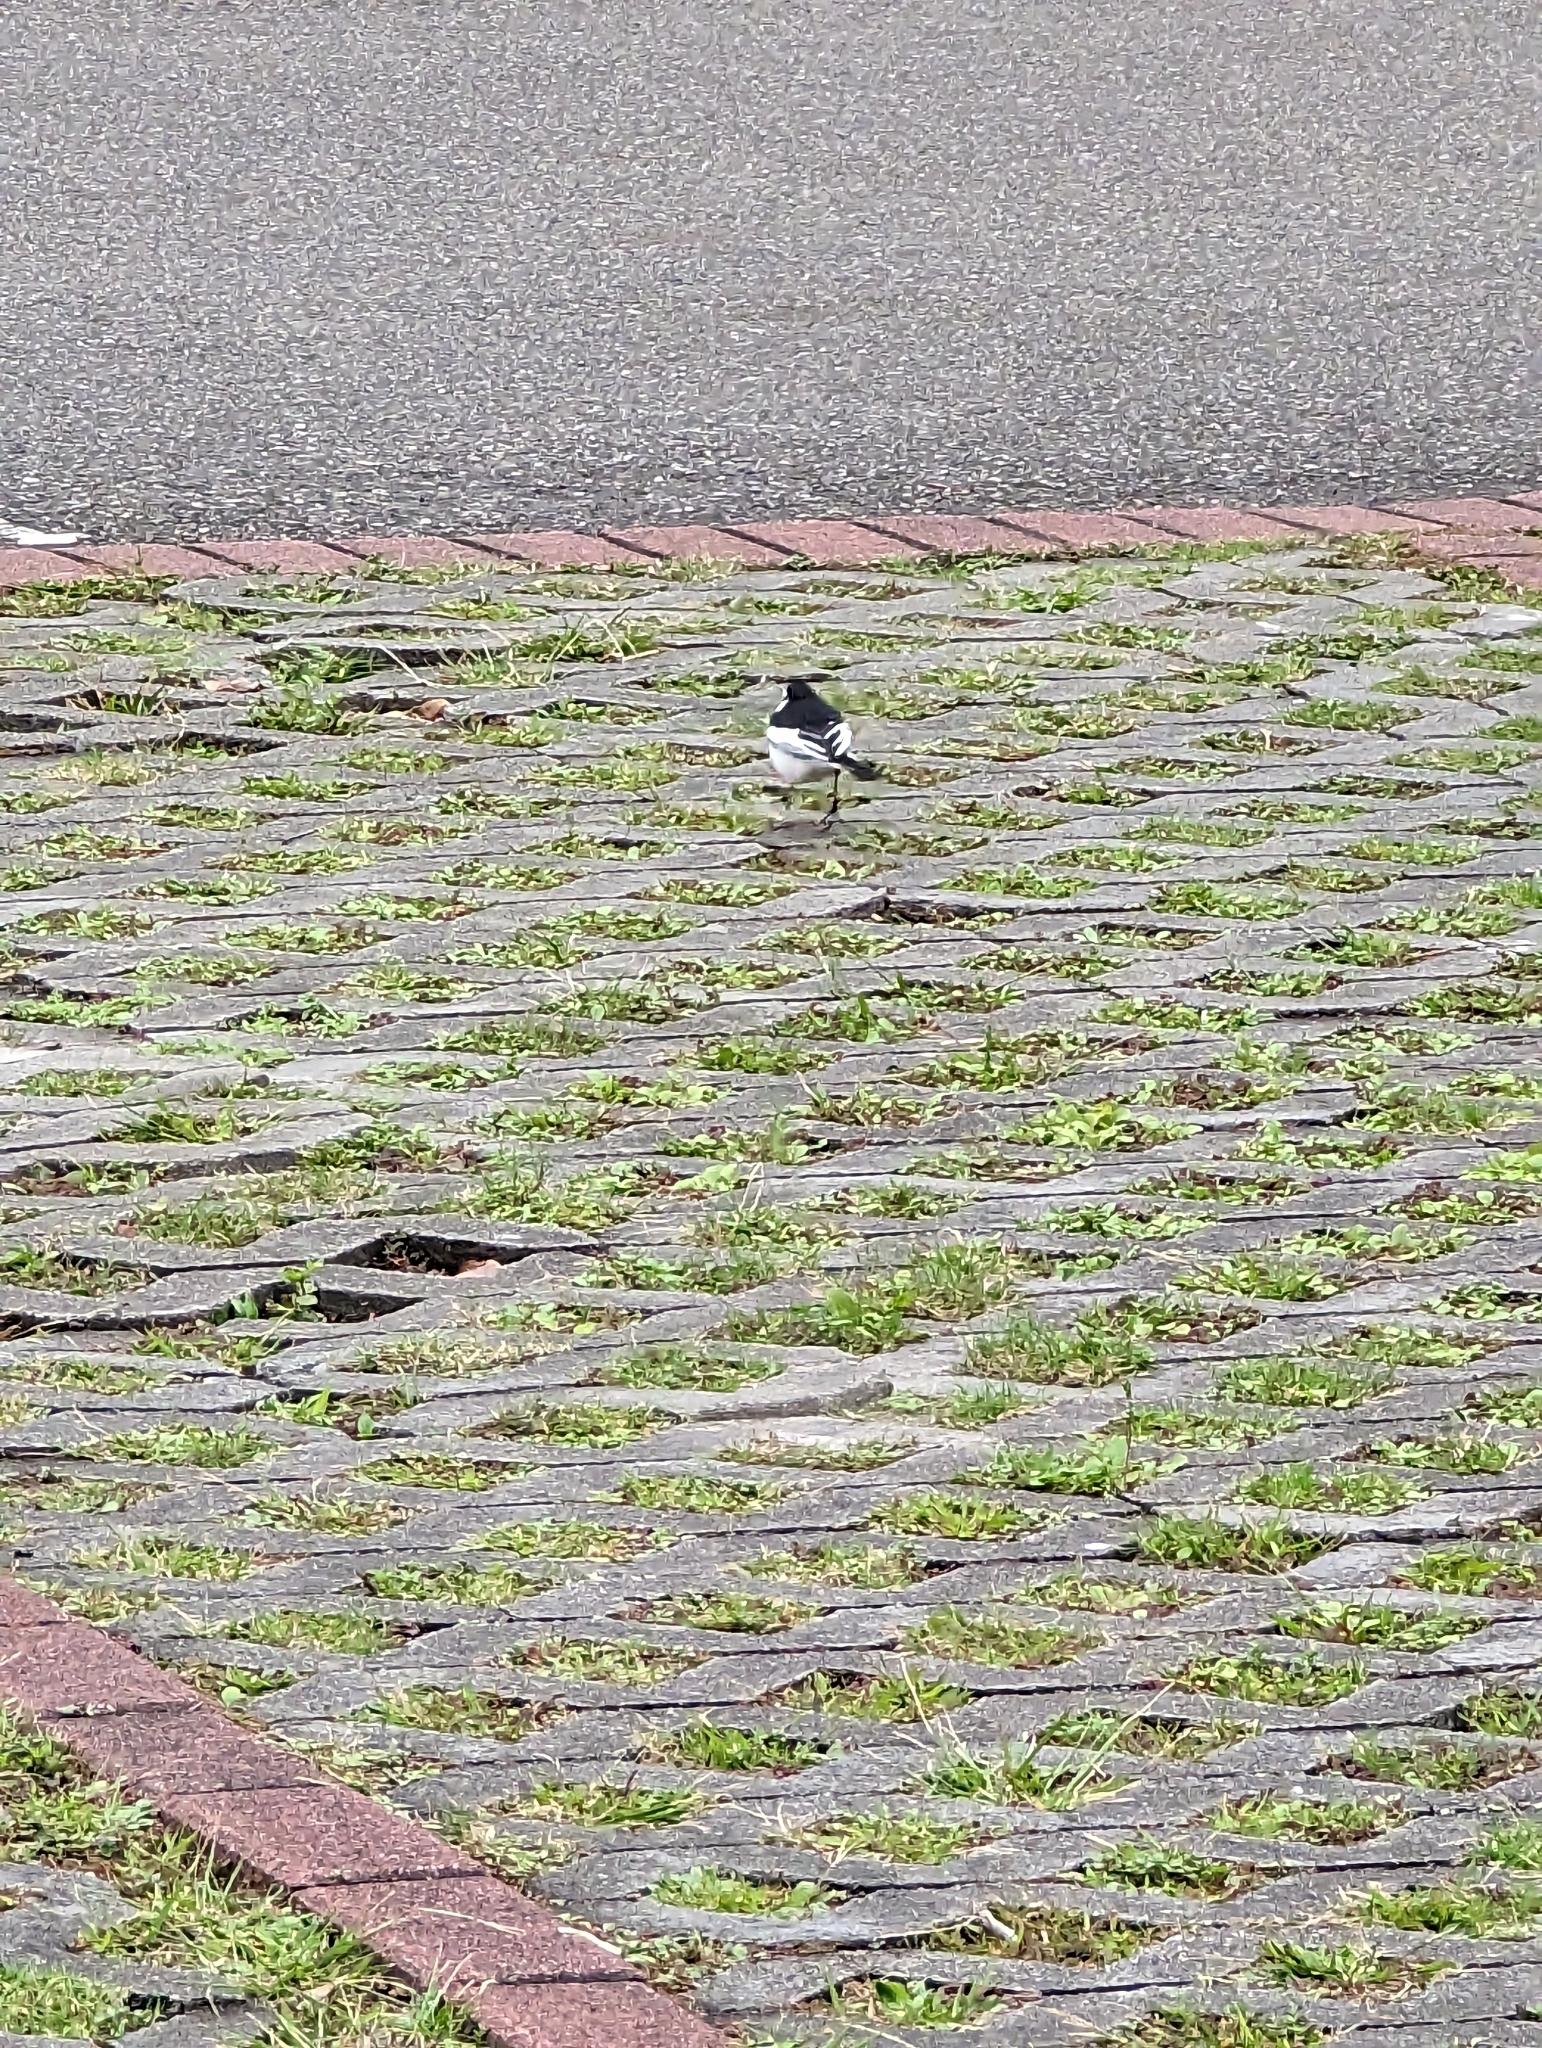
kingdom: Animalia
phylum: Chordata
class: Aves
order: Passeriformes
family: Motacillidae
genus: Motacilla
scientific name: Motacilla alba
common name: White wagtail
